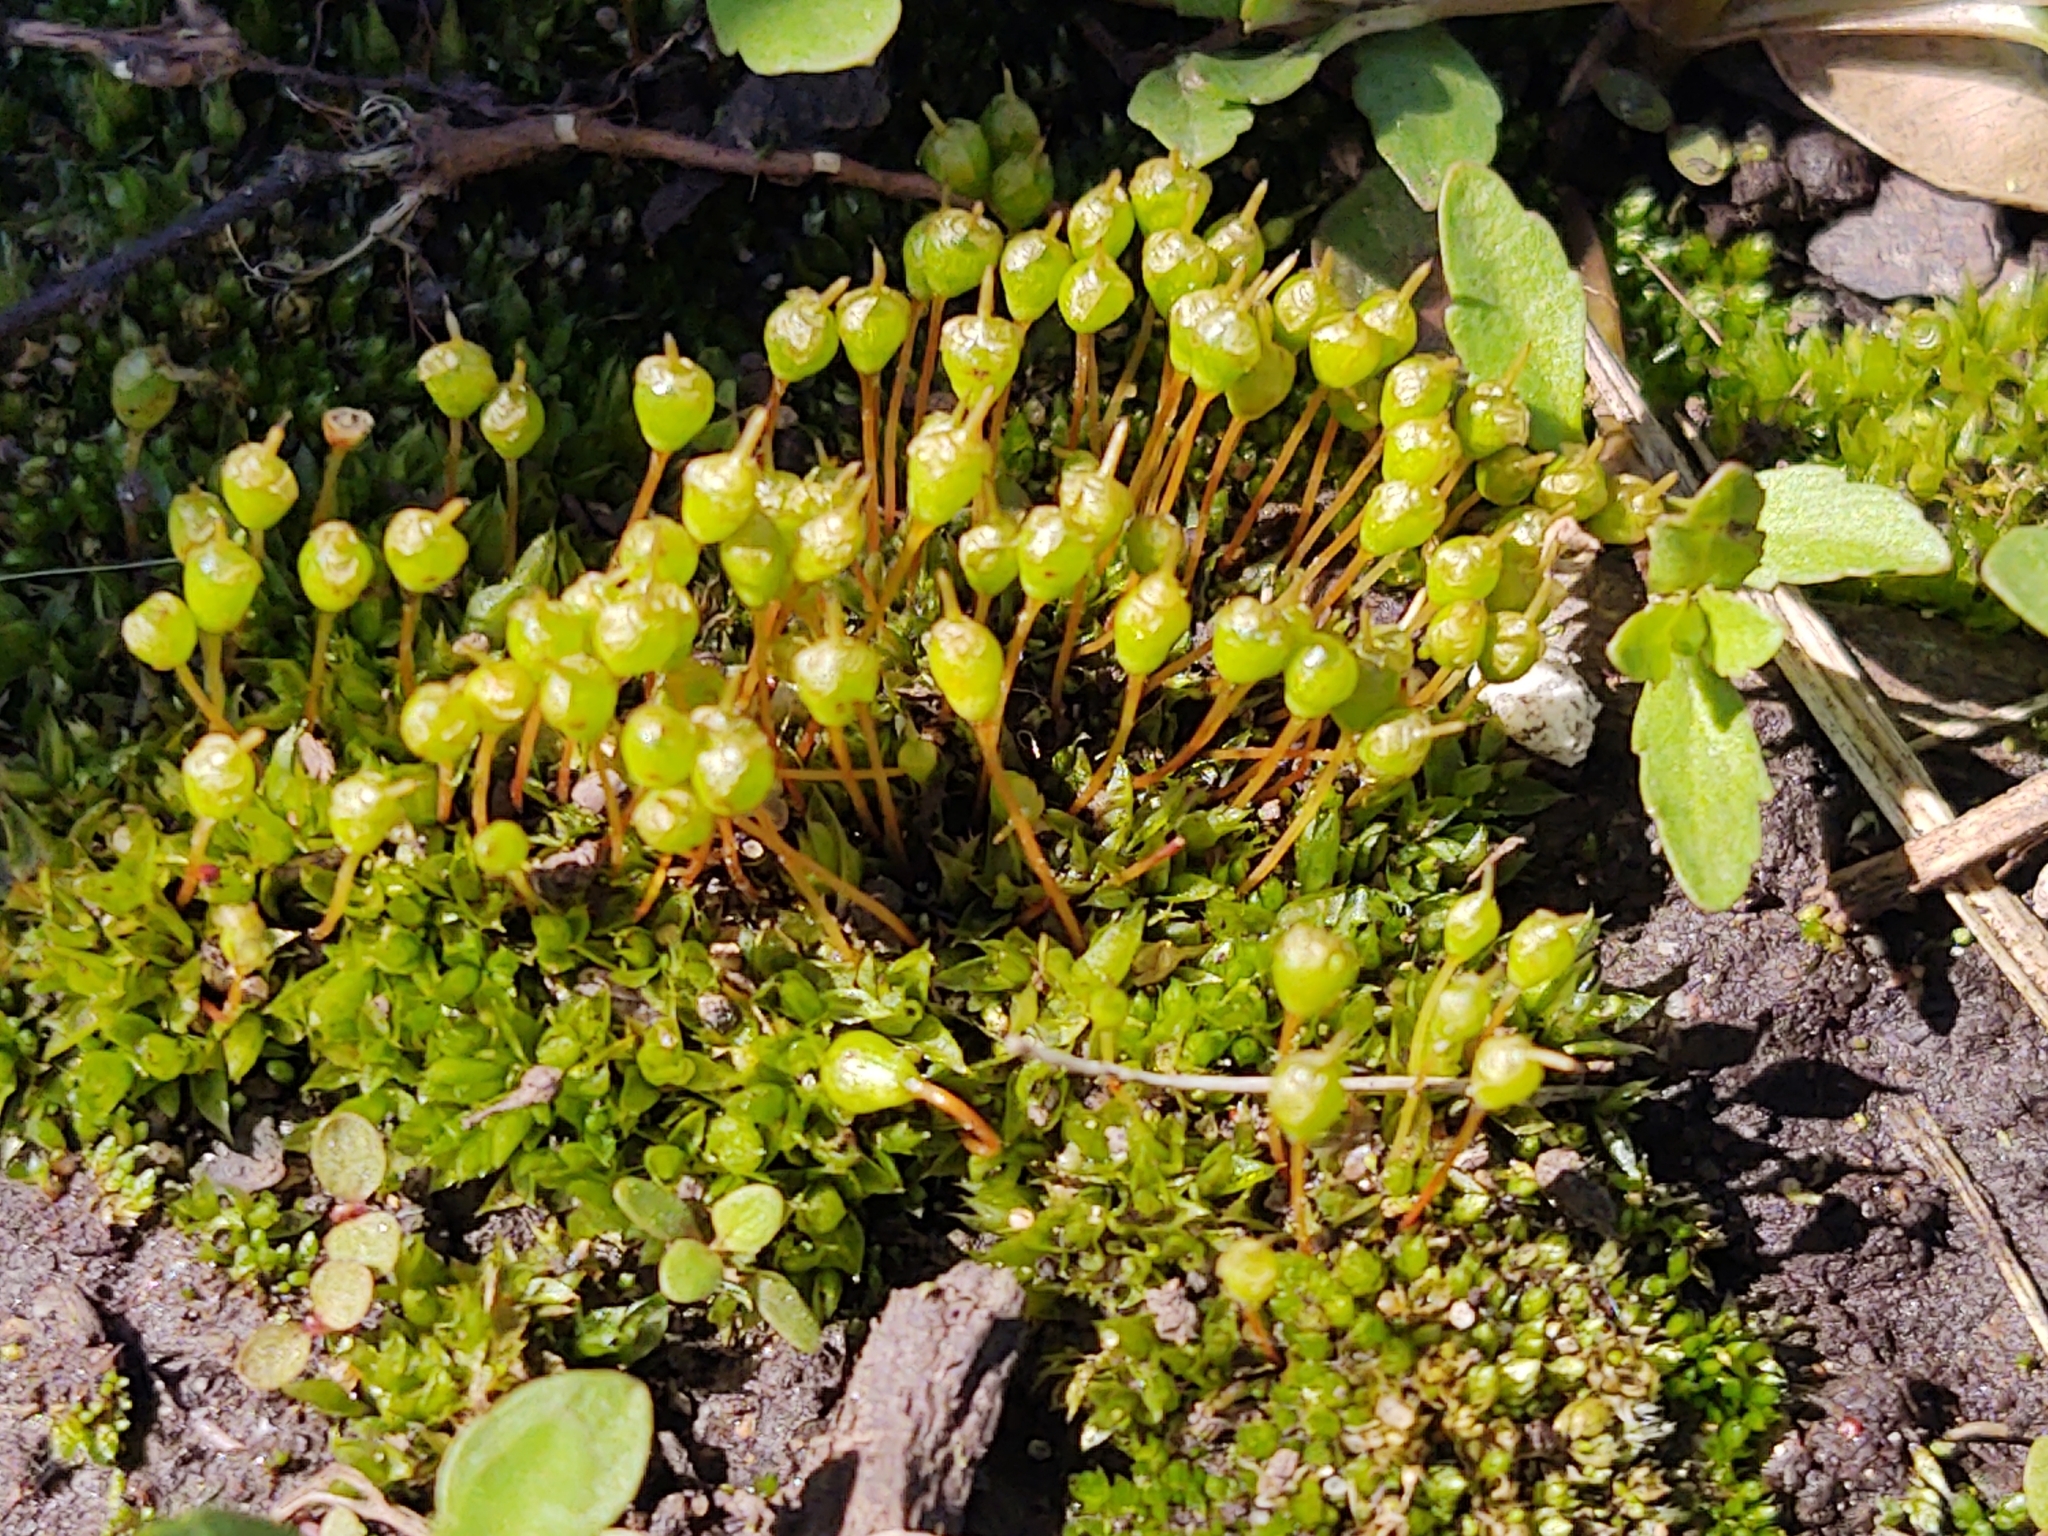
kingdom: Plantae
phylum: Bryophyta
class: Bryopsida
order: Funariales
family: Funariaceae
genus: Physcomitrium
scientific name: Physcomitrium pyriforme
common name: Common bladder-moss
